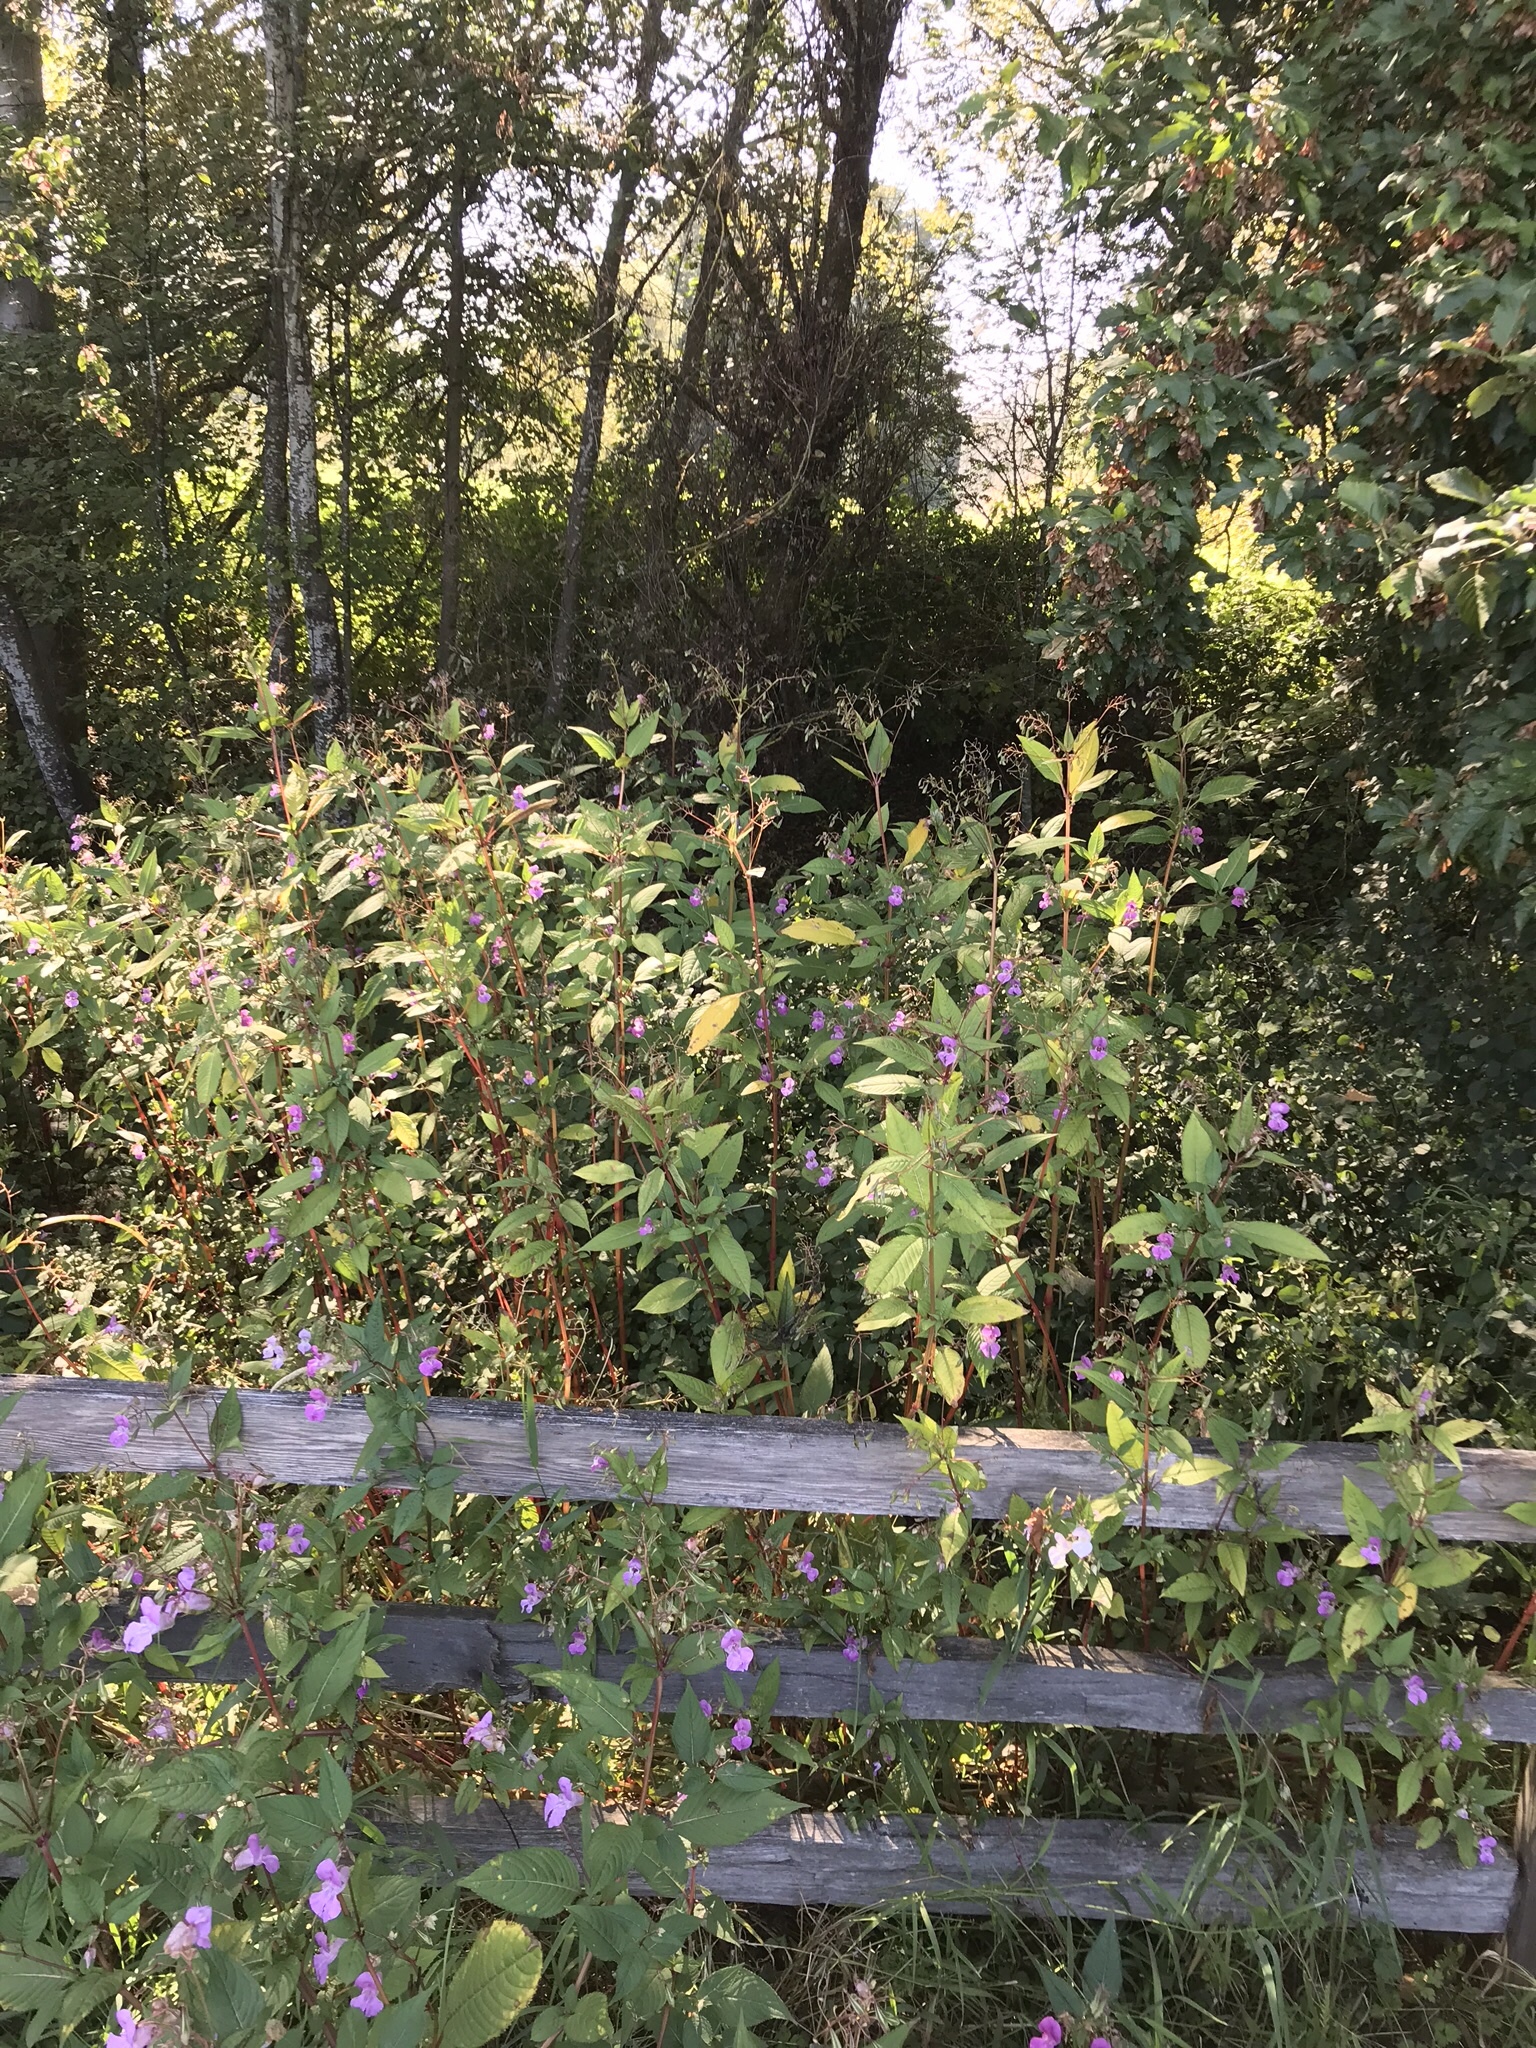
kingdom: Plantae
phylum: Tracheophyta
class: Magnoliopsida
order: Ericales
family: Balsaminaceae
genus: Impatiens
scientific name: Impatiens glandulifera
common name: Himalayan balsam
